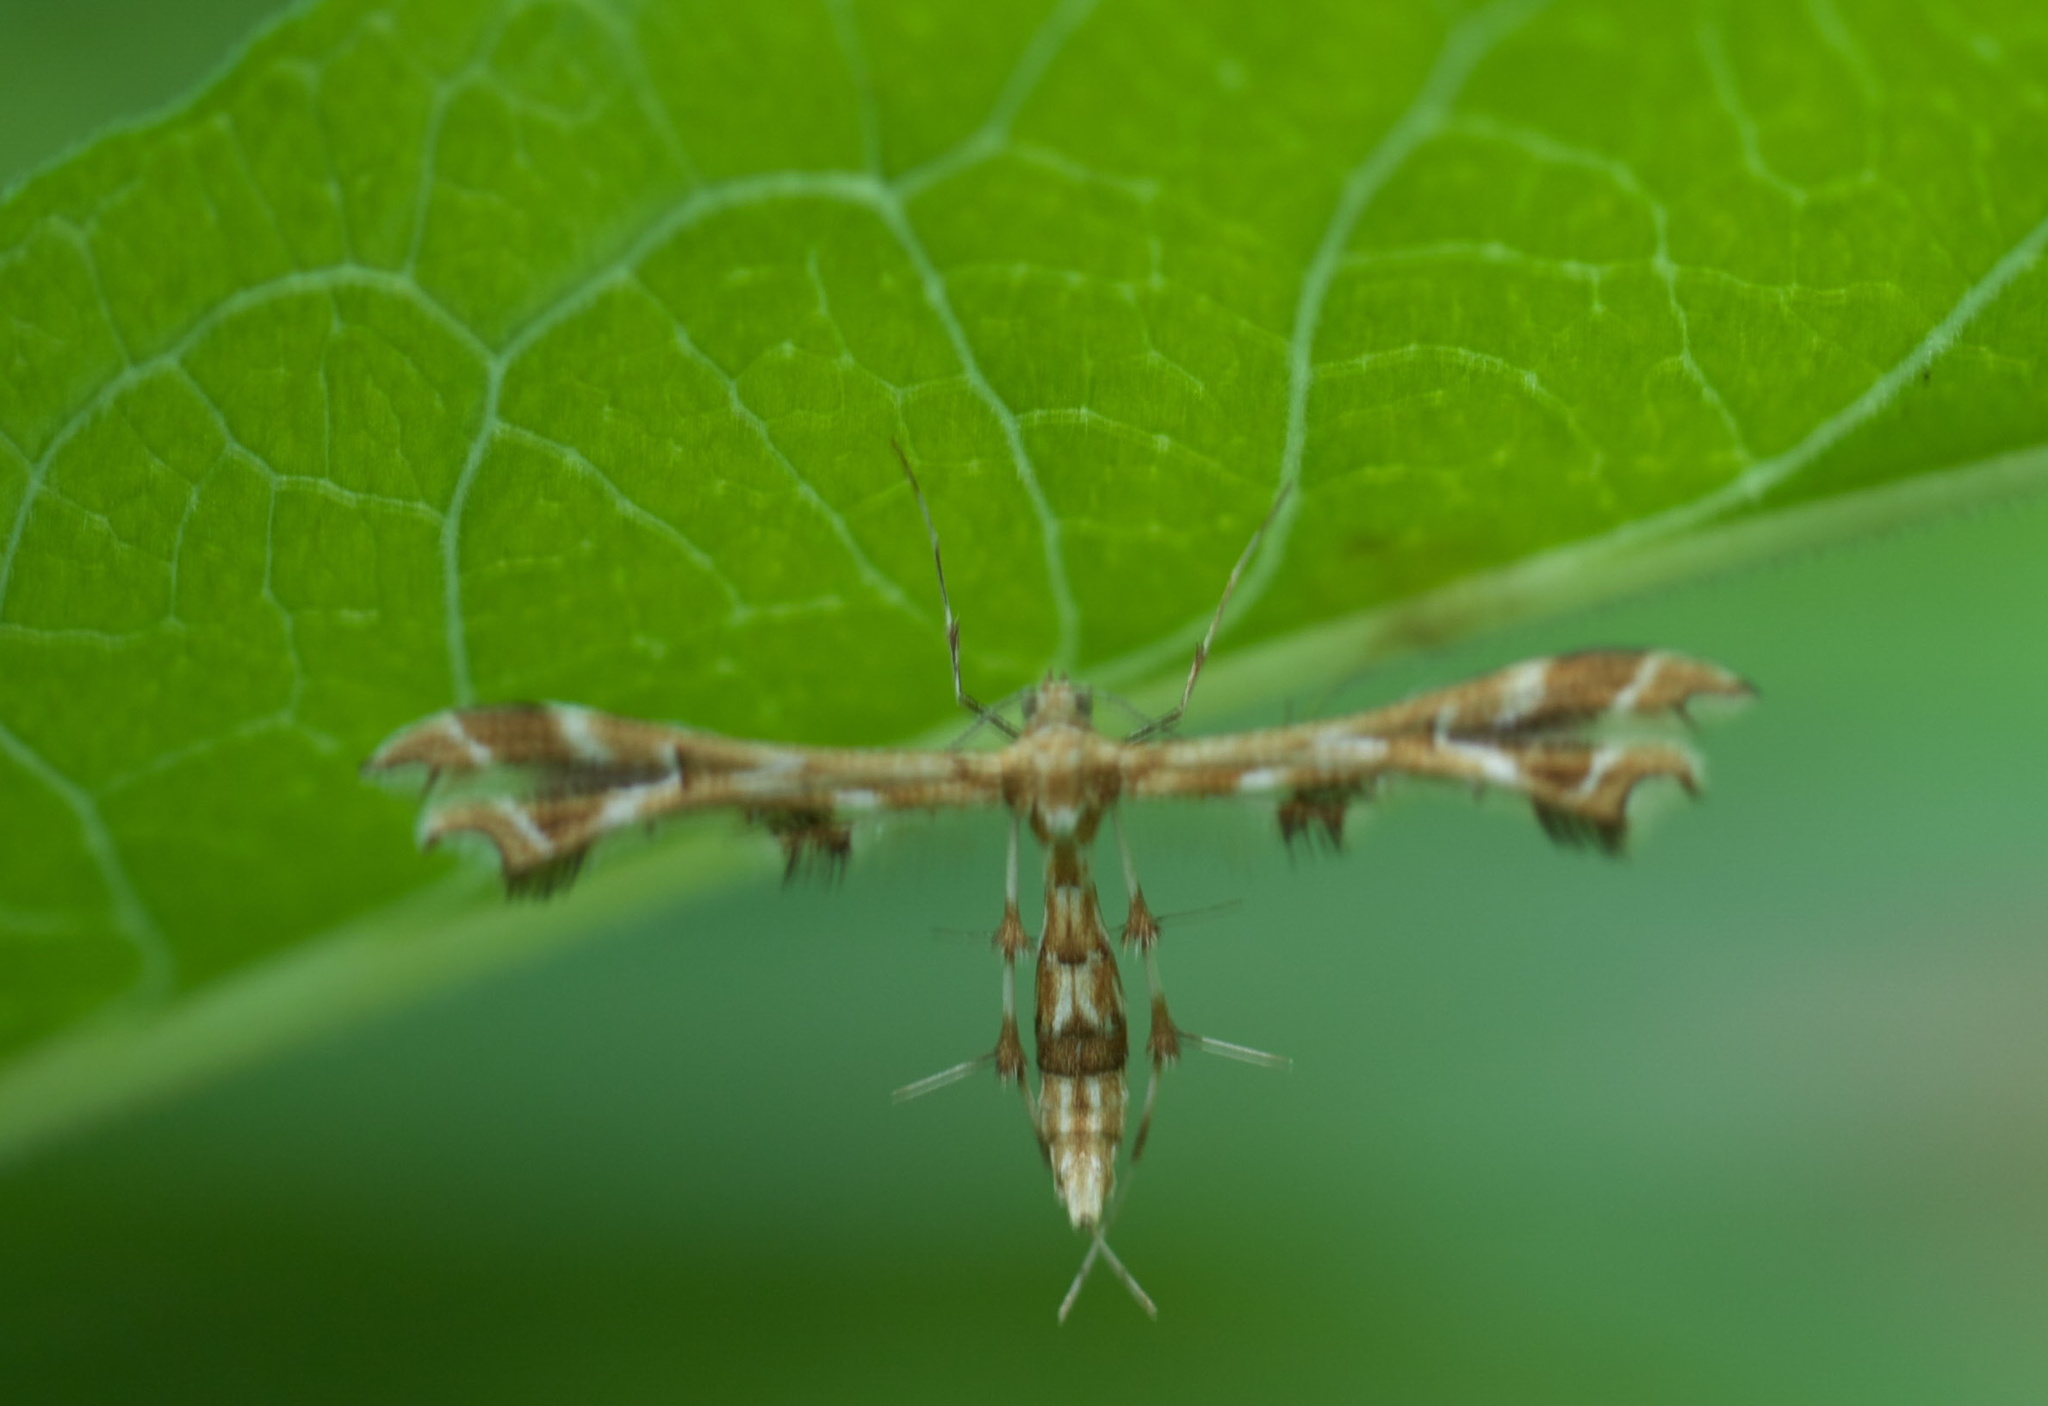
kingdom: Animalia
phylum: Arthropoda
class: Insecta
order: Lepidoptera
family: Pterophoridae
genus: Geina
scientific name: Geina periscelidactylus
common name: Grape plume moth
